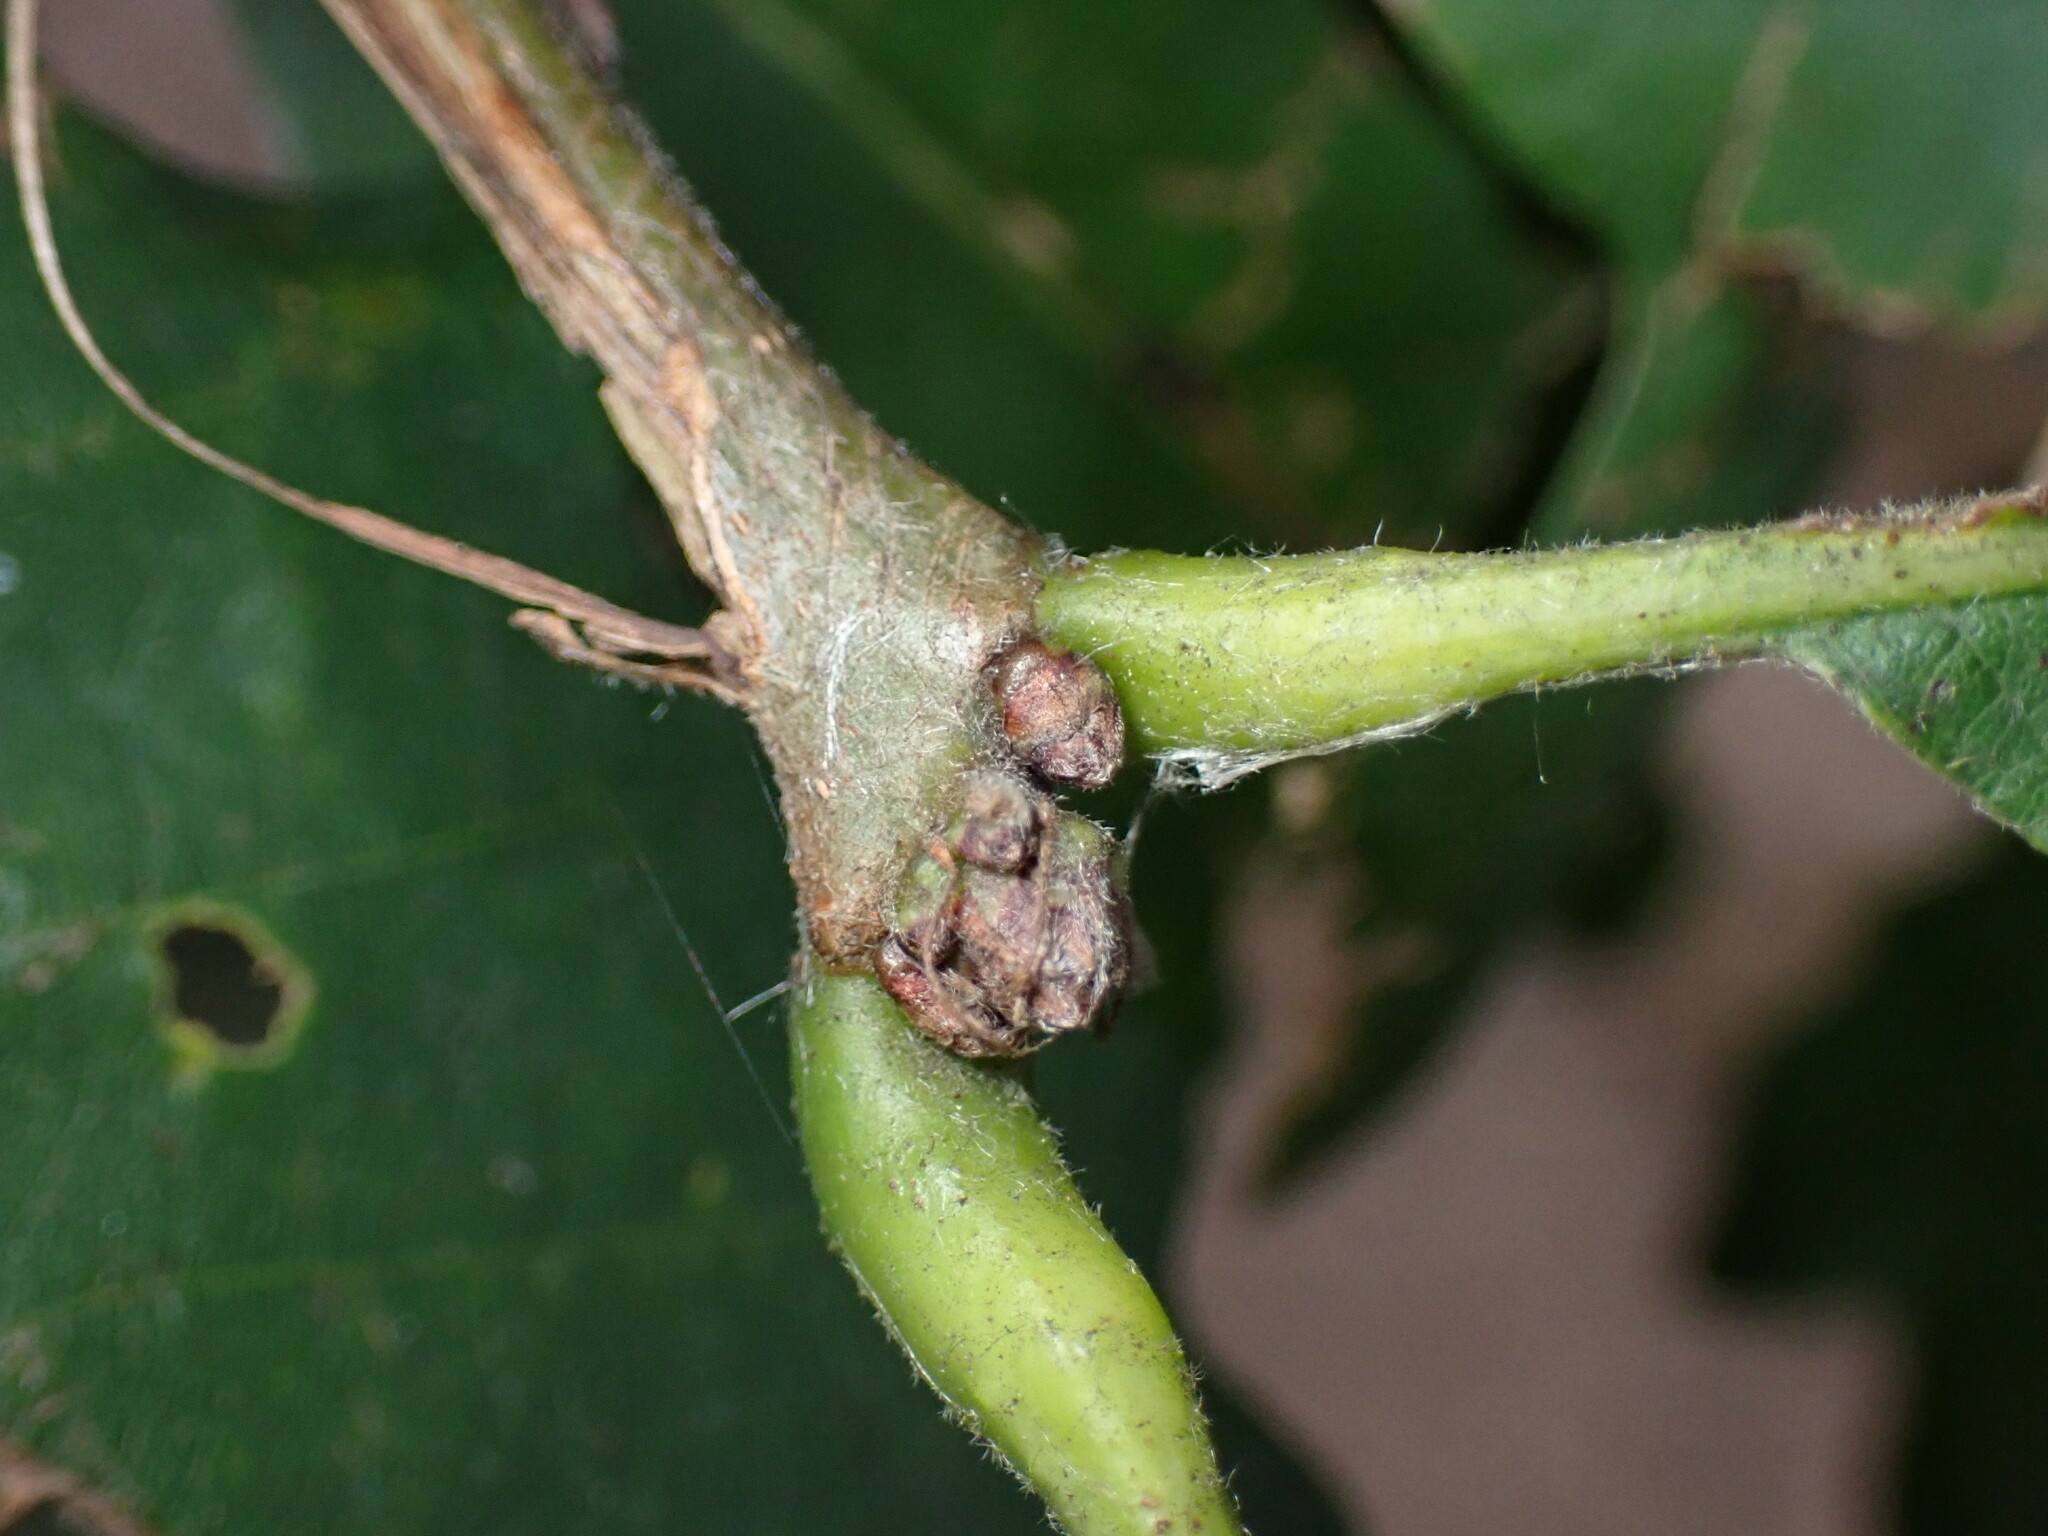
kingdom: Plantae
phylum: Tracheophyta
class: Magnoliopsida
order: Fagales
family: Fagaceae
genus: Quercus
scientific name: Quercus michauxii
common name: Swamp chestnut oak
